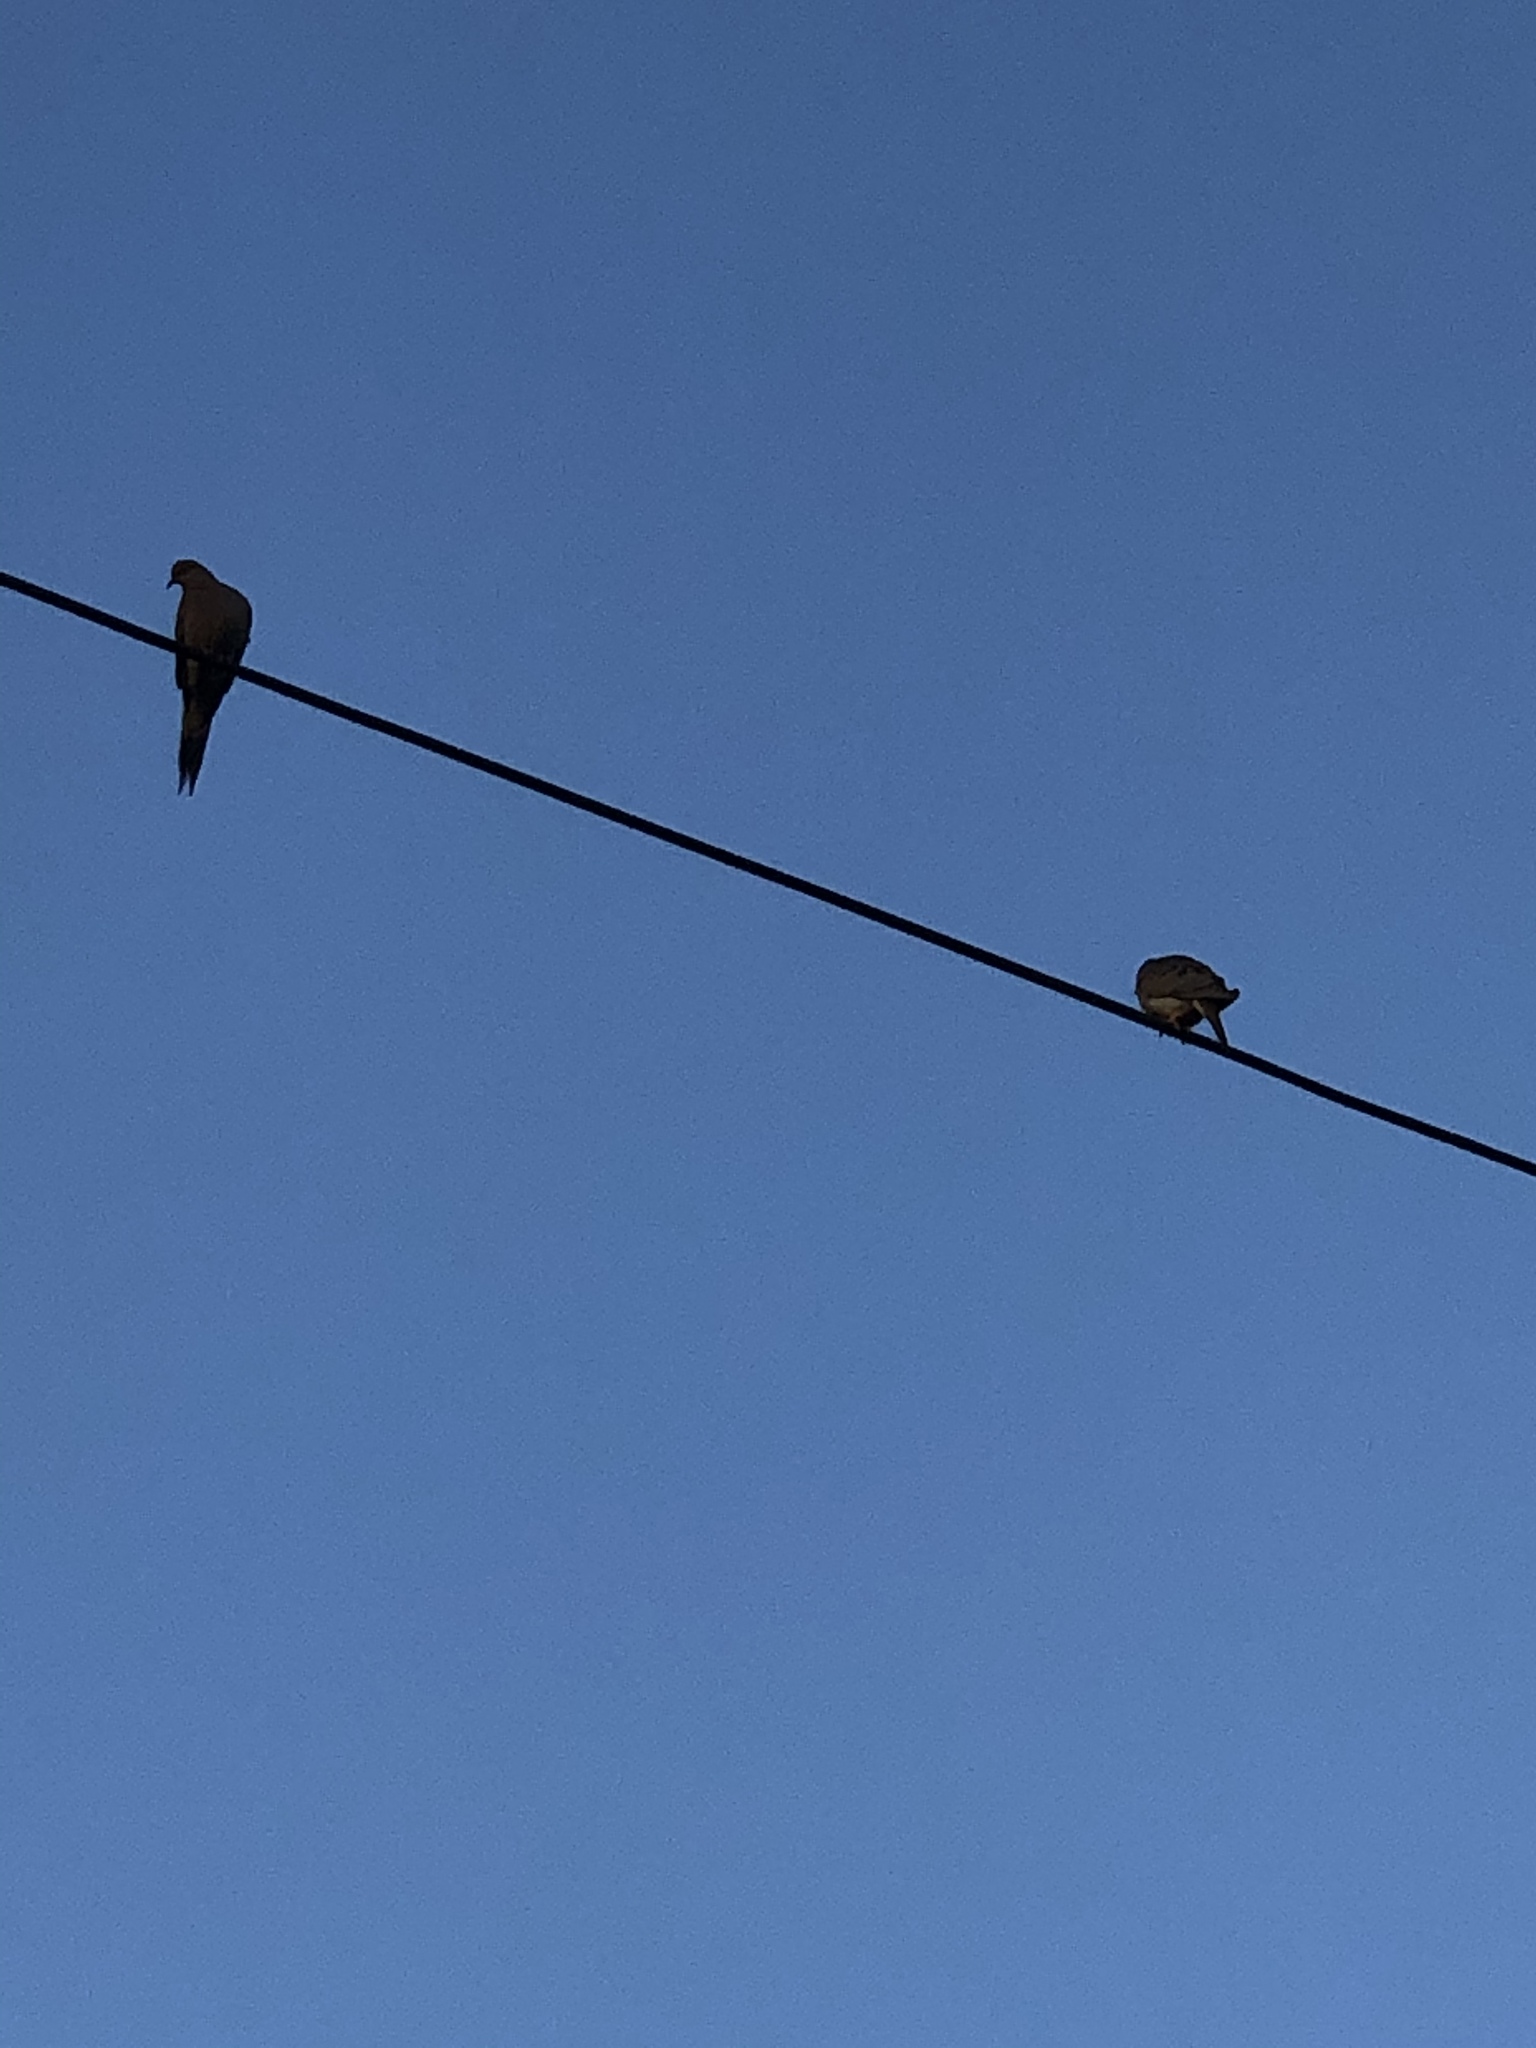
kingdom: Animalia
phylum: Chordata
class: Aves
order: Columbiformes
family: Columbidae
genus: Zenaida
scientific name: Zenaida macroura
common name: Mourning dove
